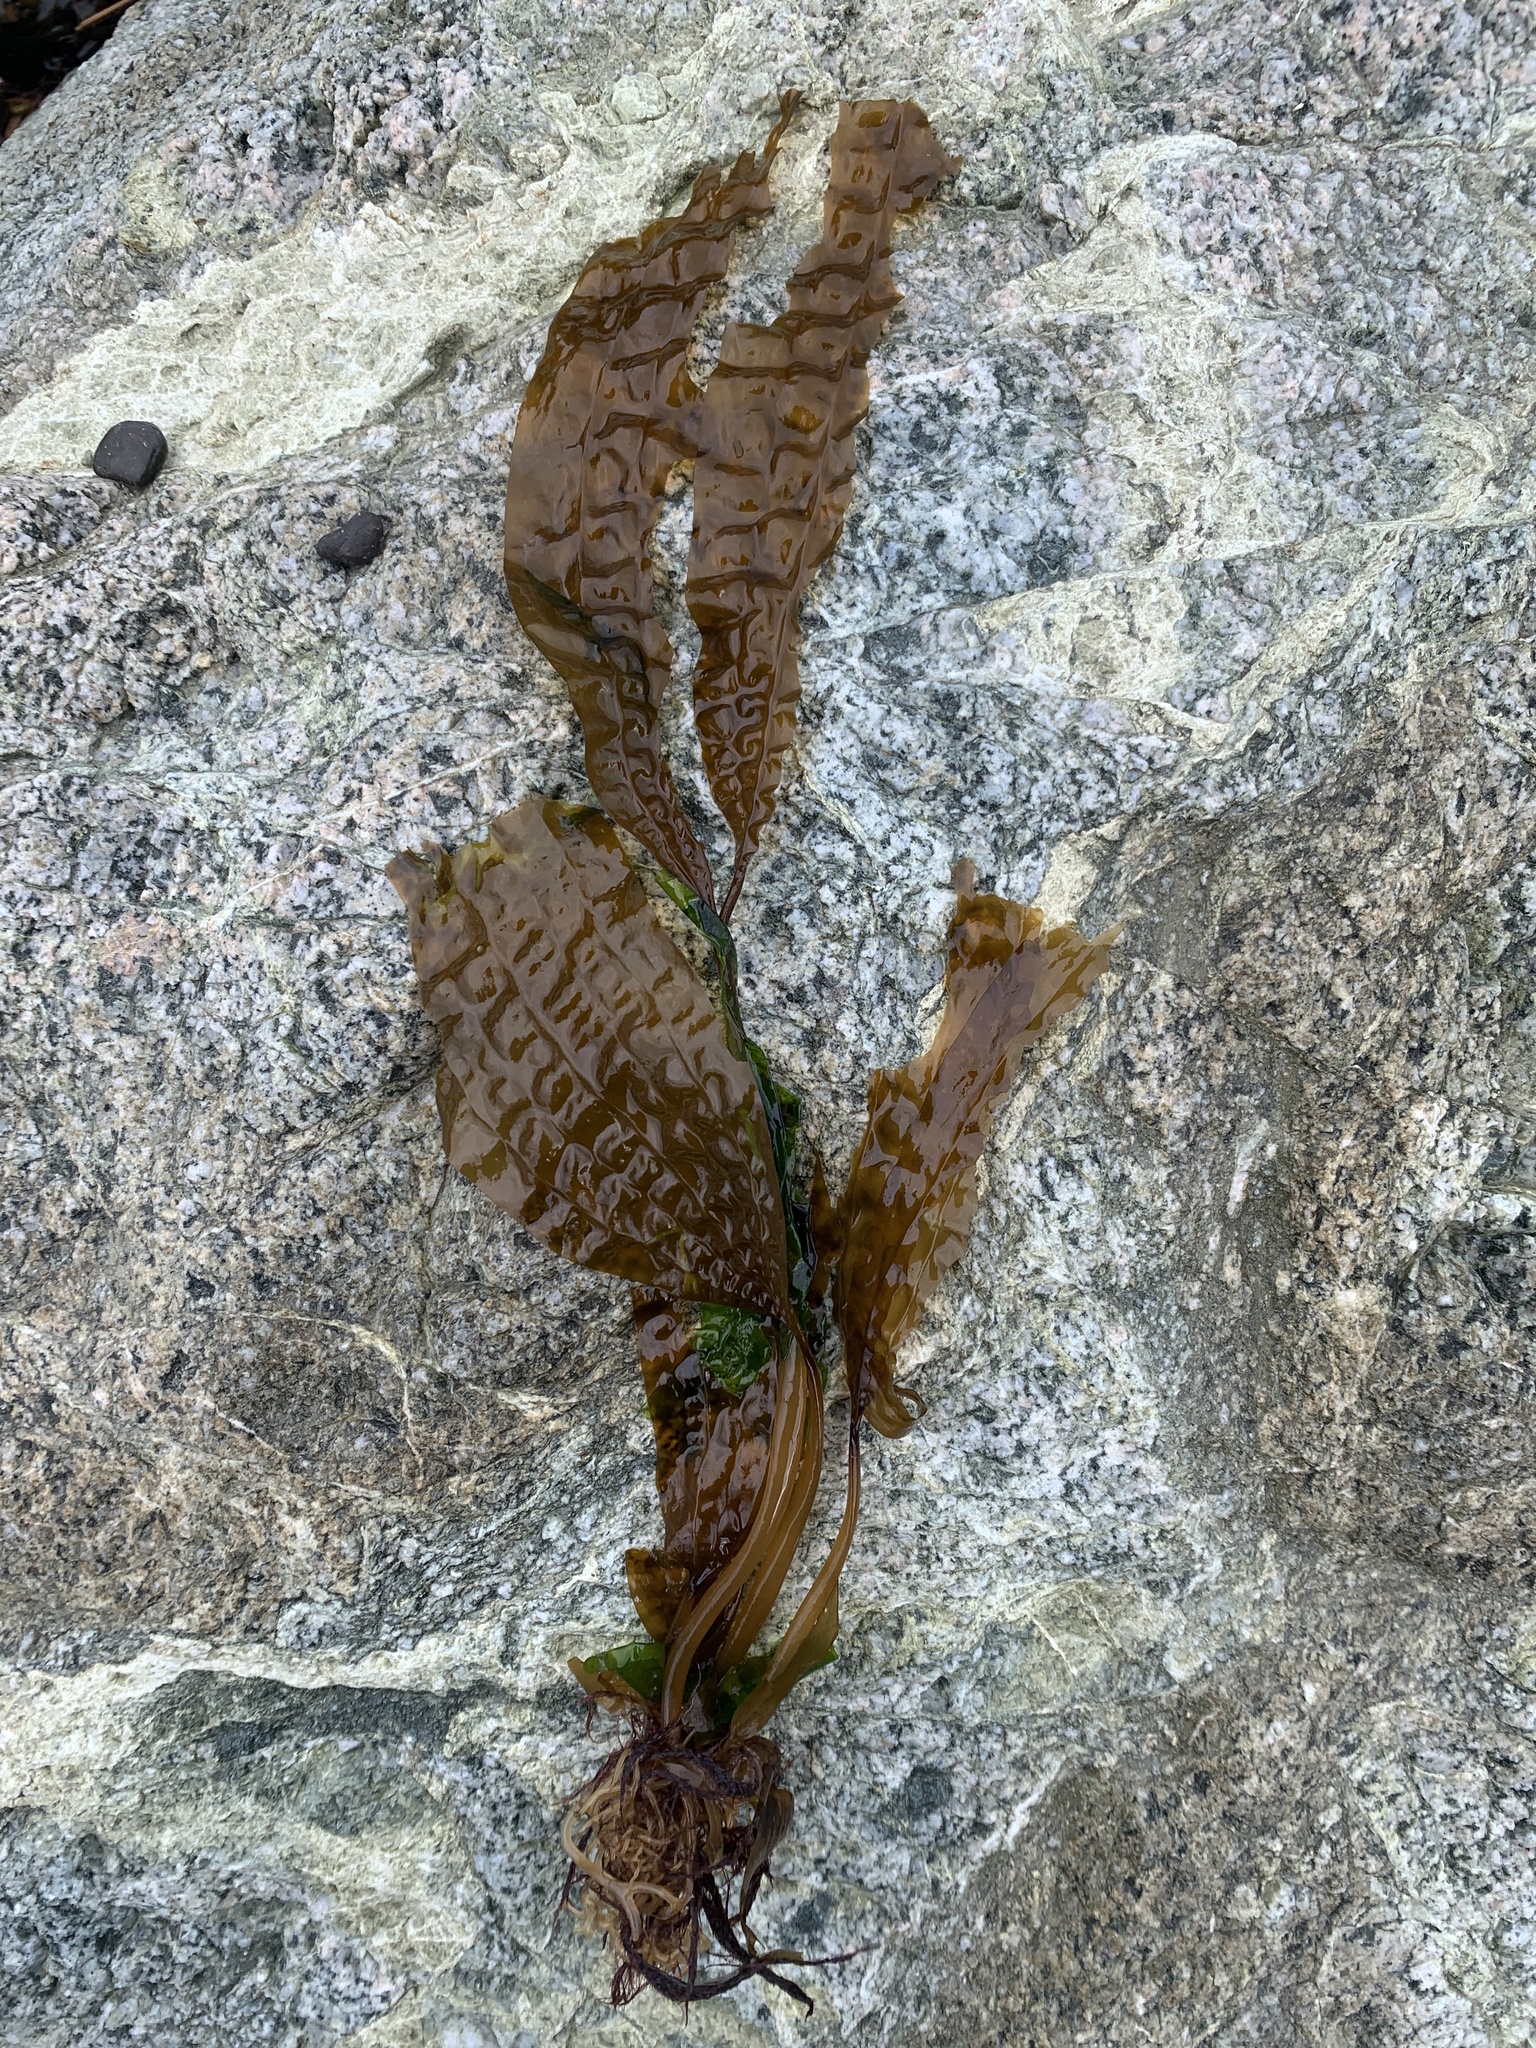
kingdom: Chromista
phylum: Ochrophyta
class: Phaeophyceae
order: Laminariales
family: Costariaceae
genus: Costaria
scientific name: Costaria costata
